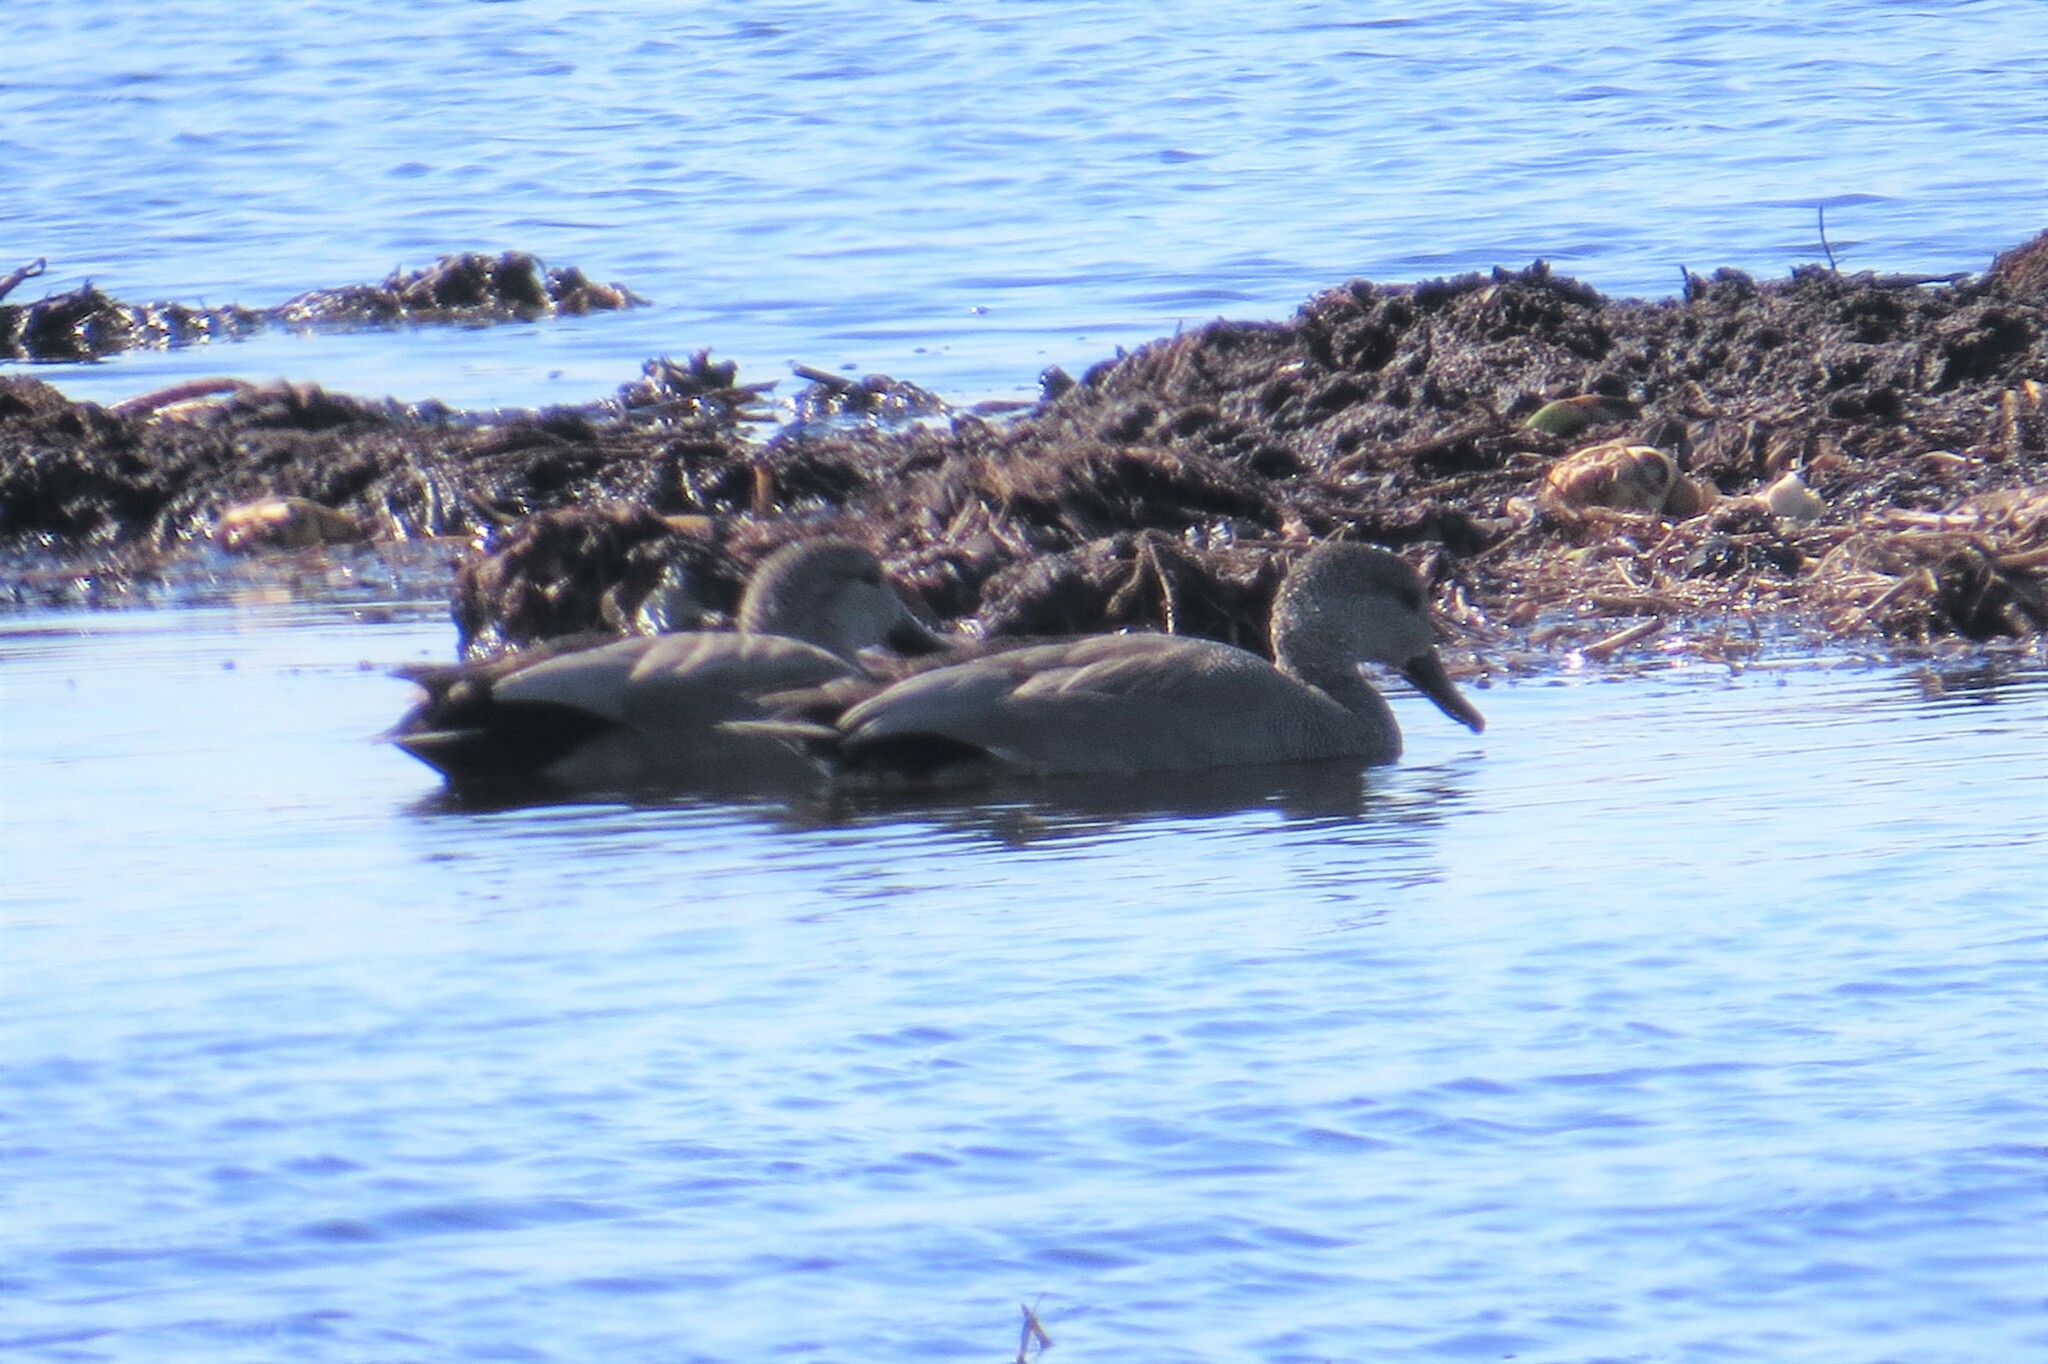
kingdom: Animalia
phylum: Chordata
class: Aves
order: Anseriformes
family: Anatidae
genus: Mareca
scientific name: Mareca strepera
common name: Gadwall
